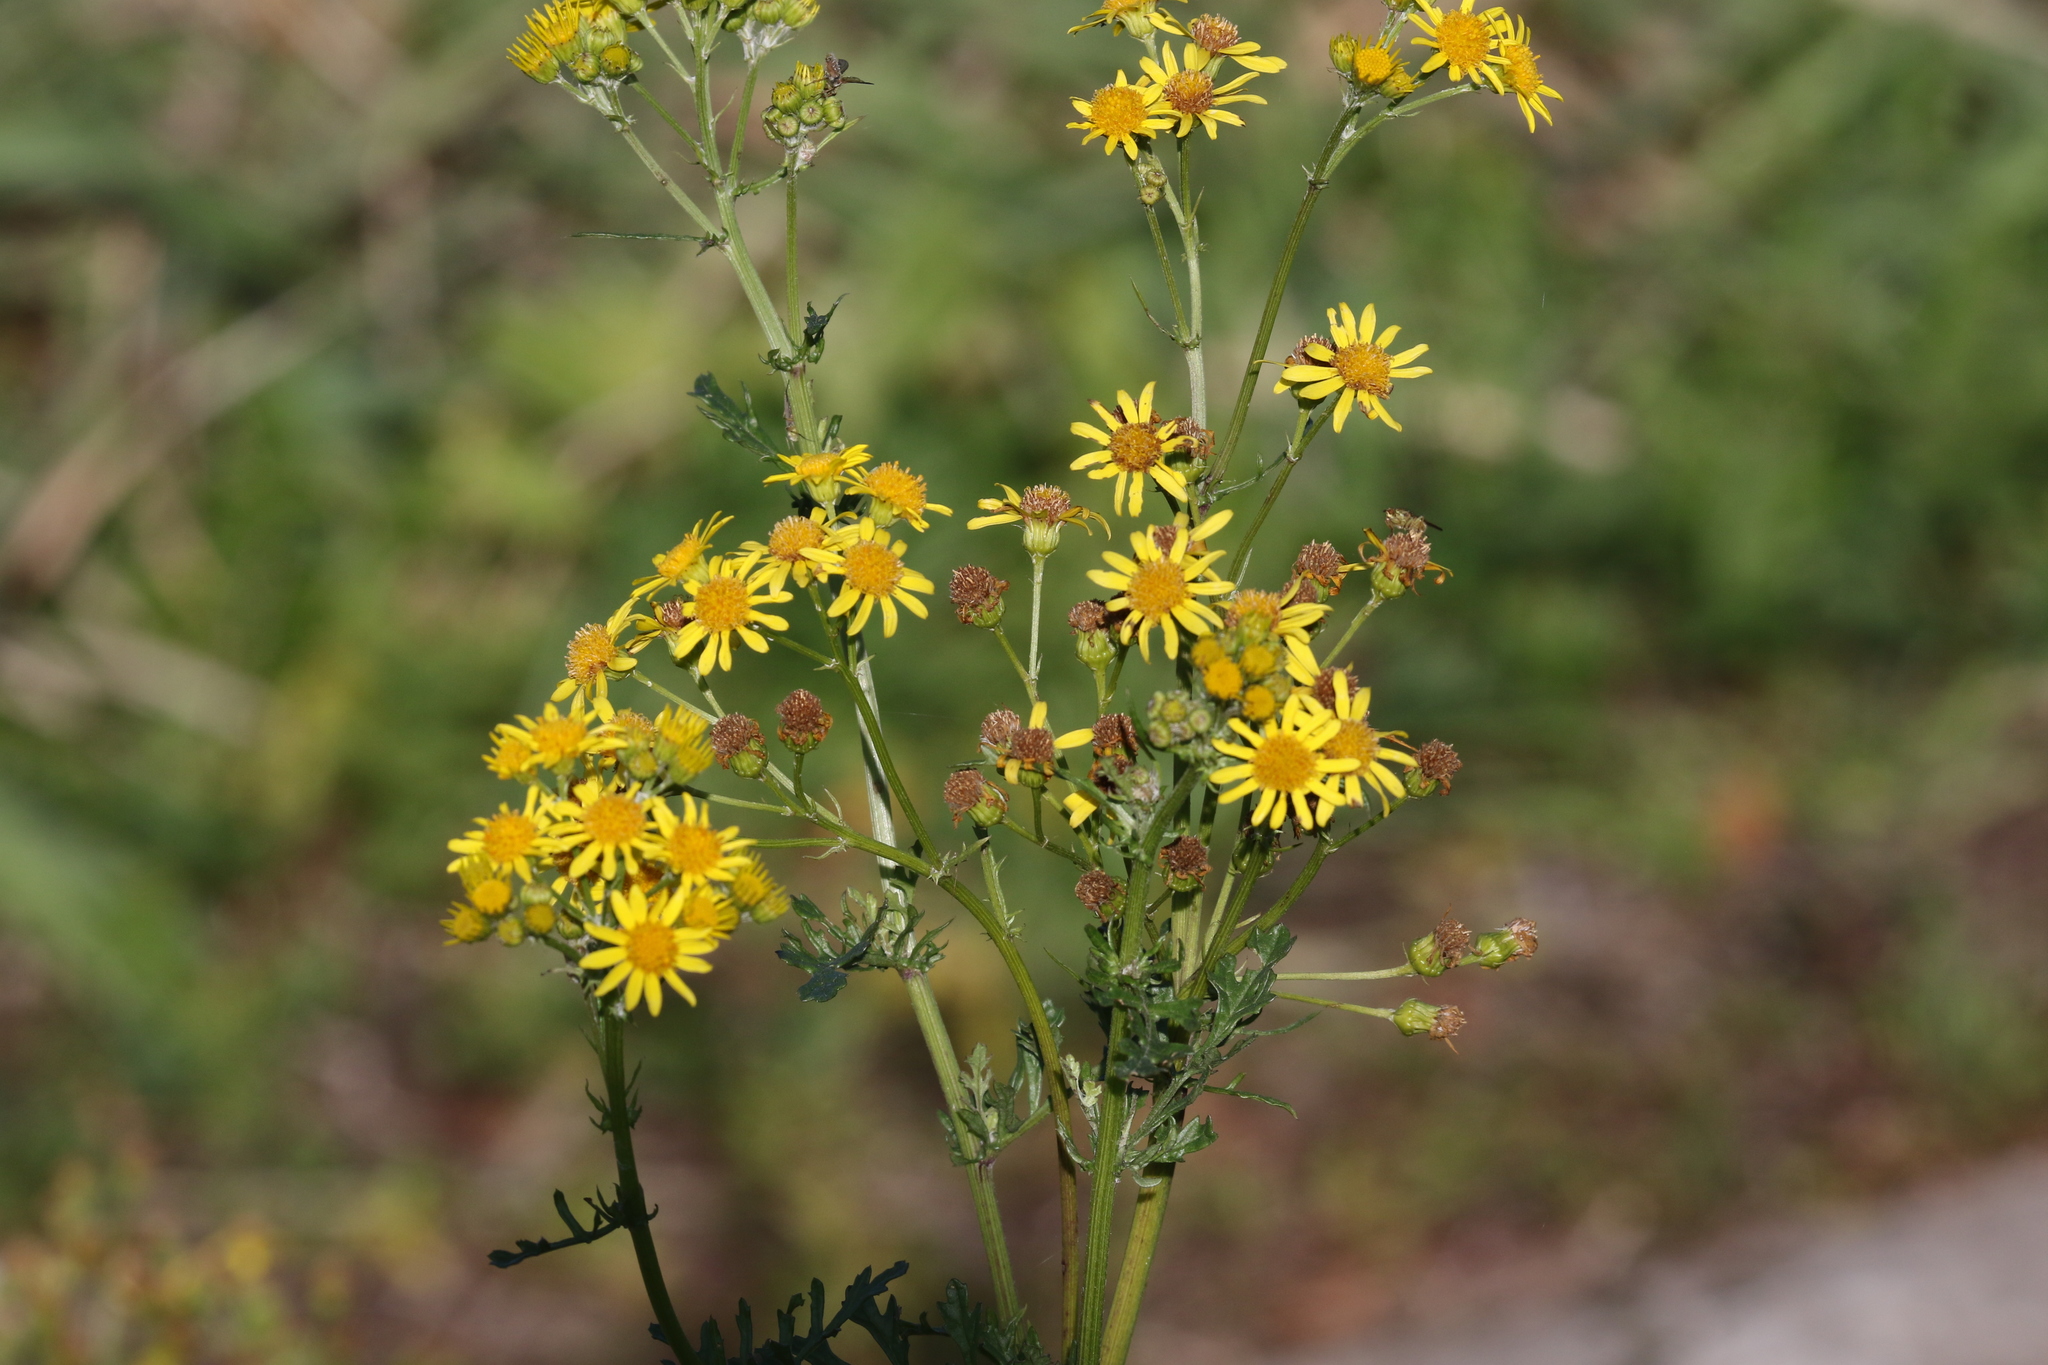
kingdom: Plantae
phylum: Tracheophyta
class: Magnoliopsida
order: Asterales
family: Asteraceae
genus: Jacobaea
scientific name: Jacobaea vulgaris
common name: Stinking willie
